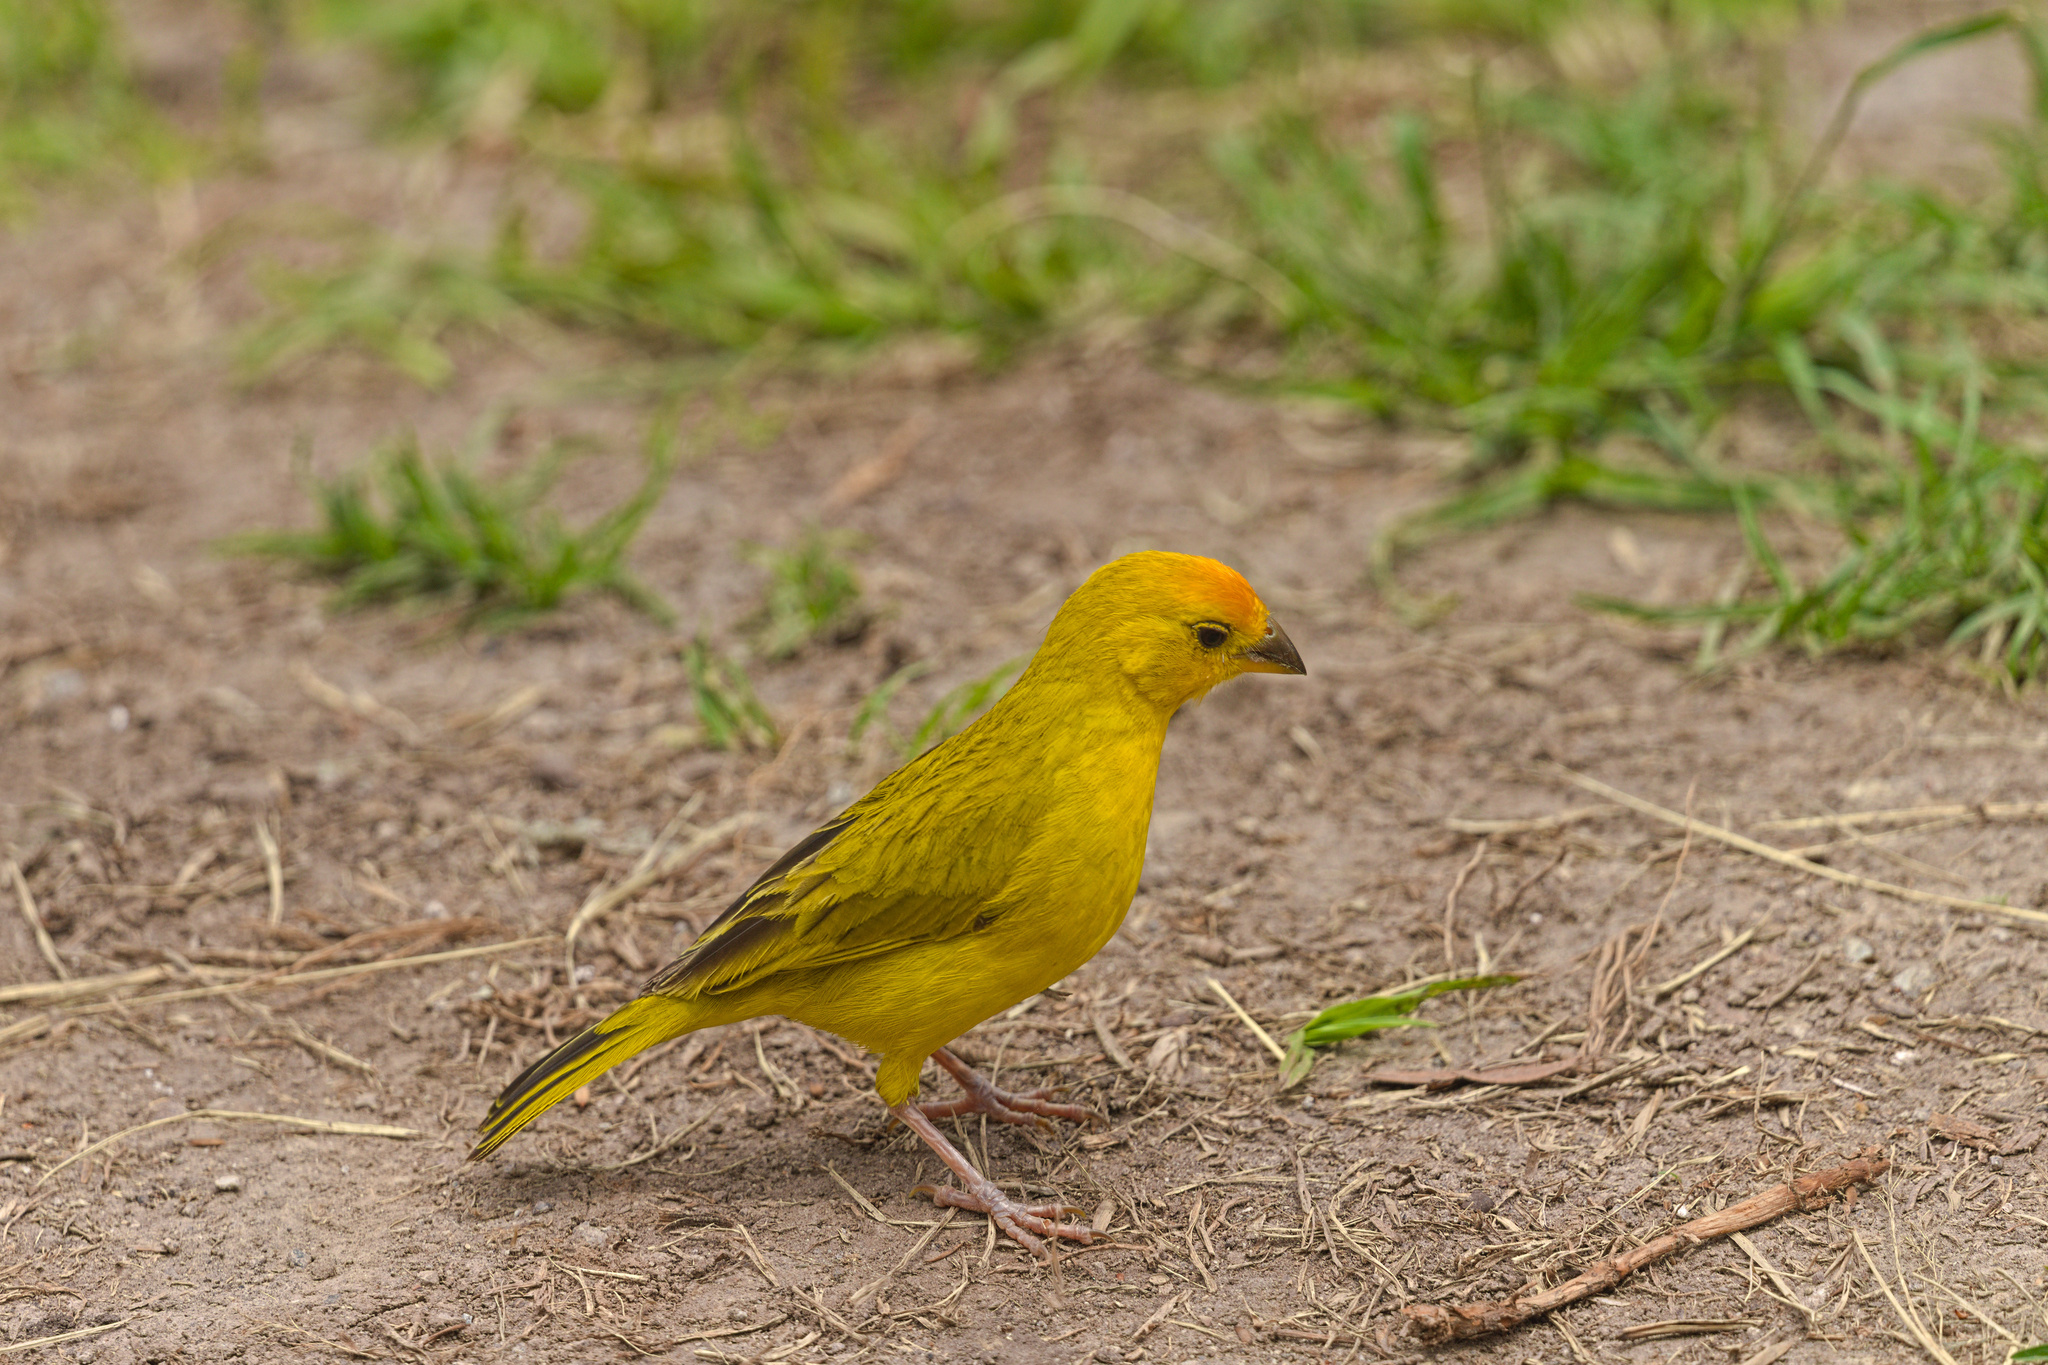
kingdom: Animalia
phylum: Chordata
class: Aves
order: Passeriformes
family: Thraupidae
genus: Sicalis
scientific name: Sicalis flaveola
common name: Saffron finch
